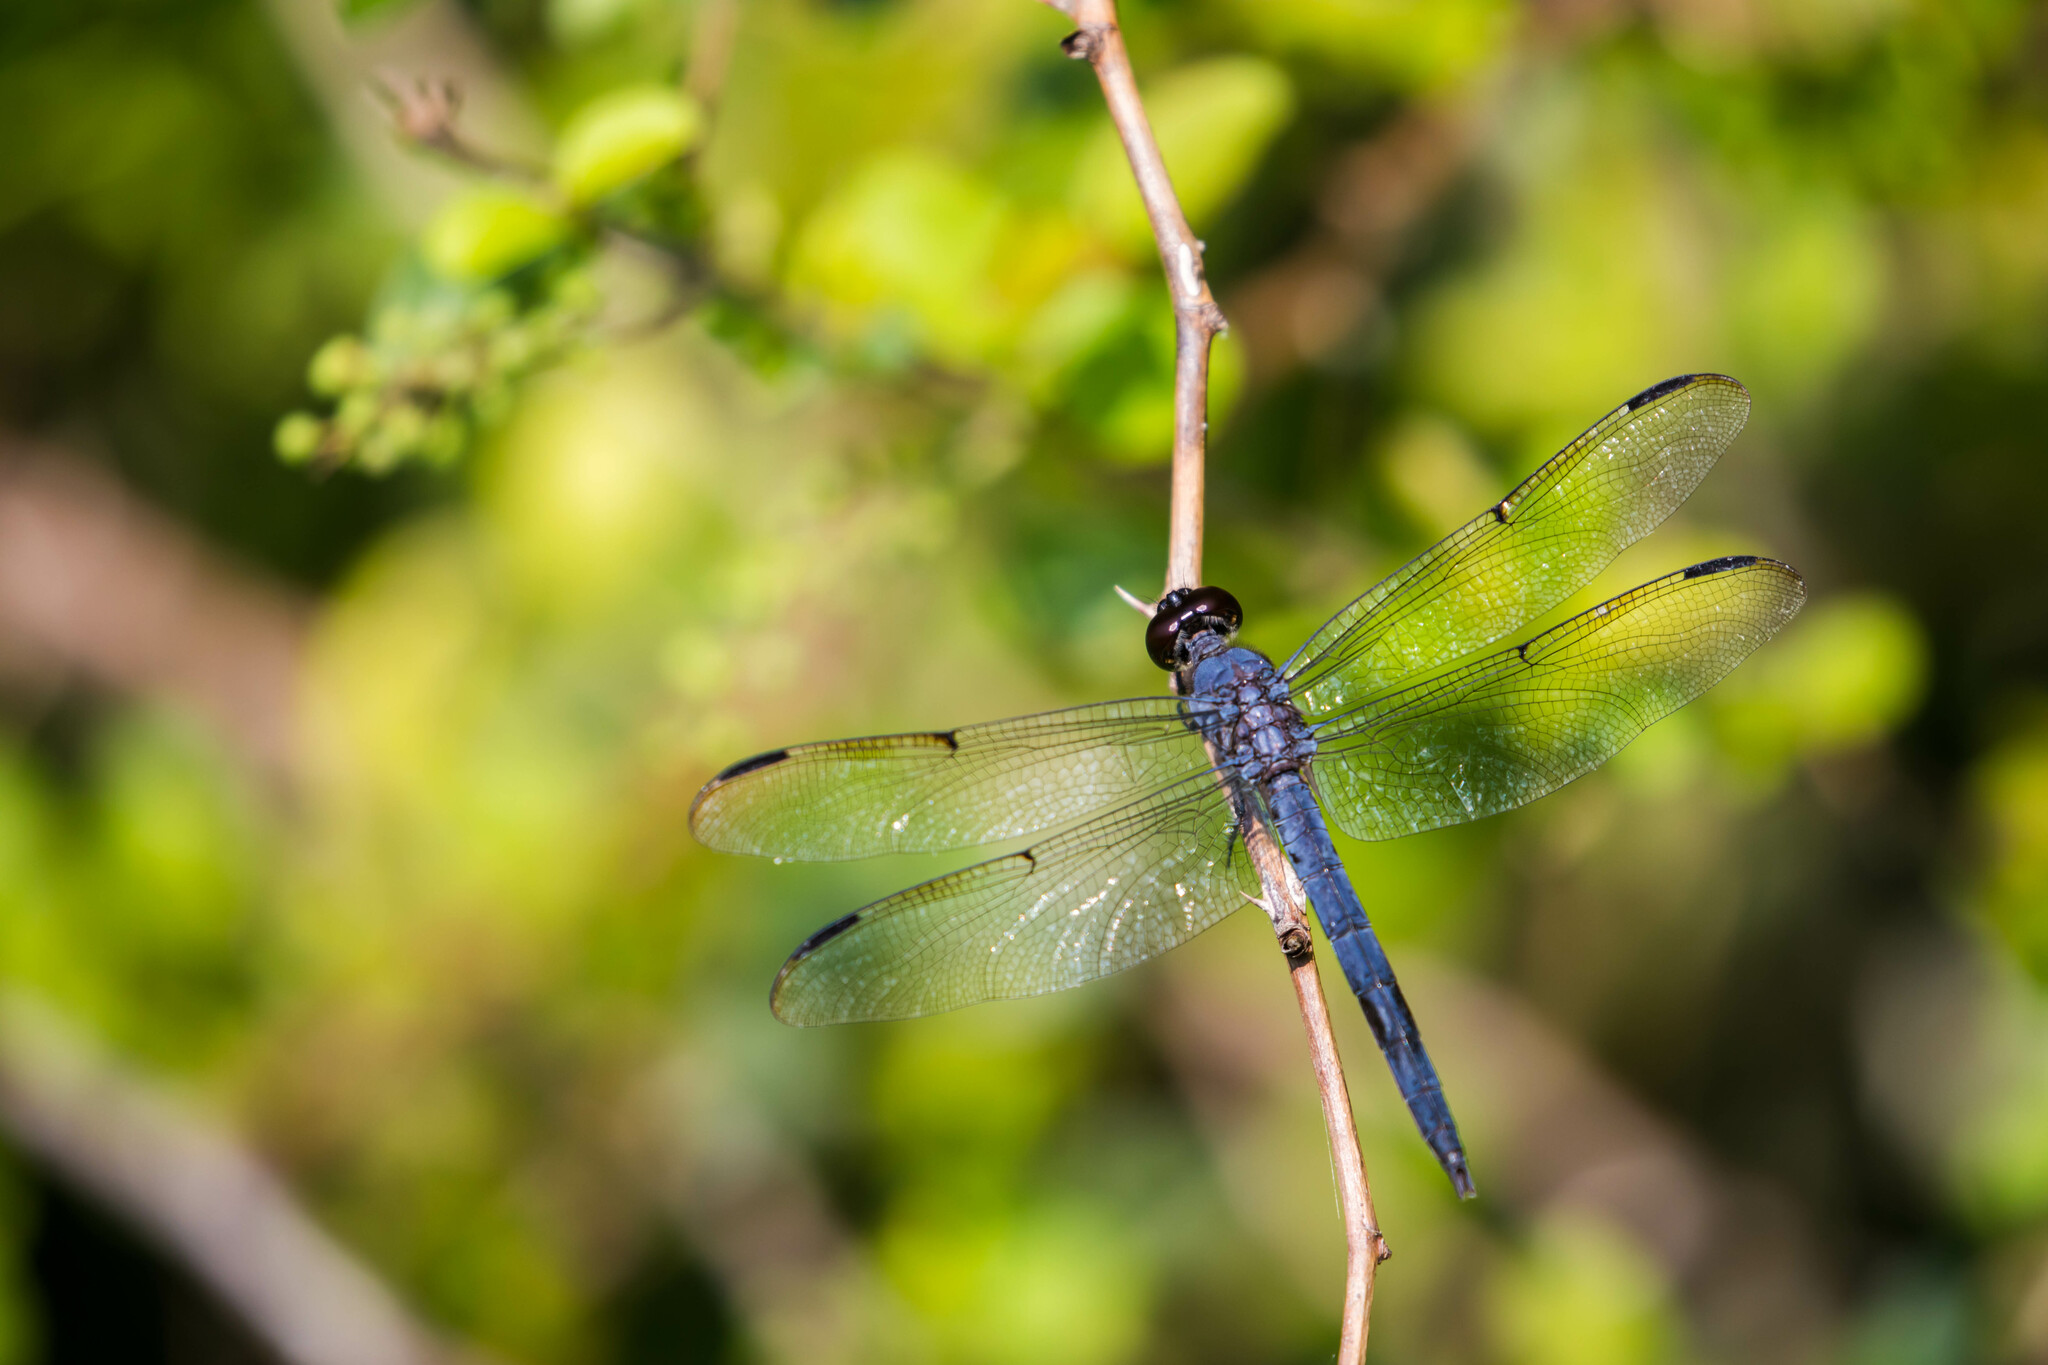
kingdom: Animalia
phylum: Arthropoda
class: Insecta
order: Odonata
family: Libellulidae
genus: Libellula
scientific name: Libellula incesta
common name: Slaty skimmer
